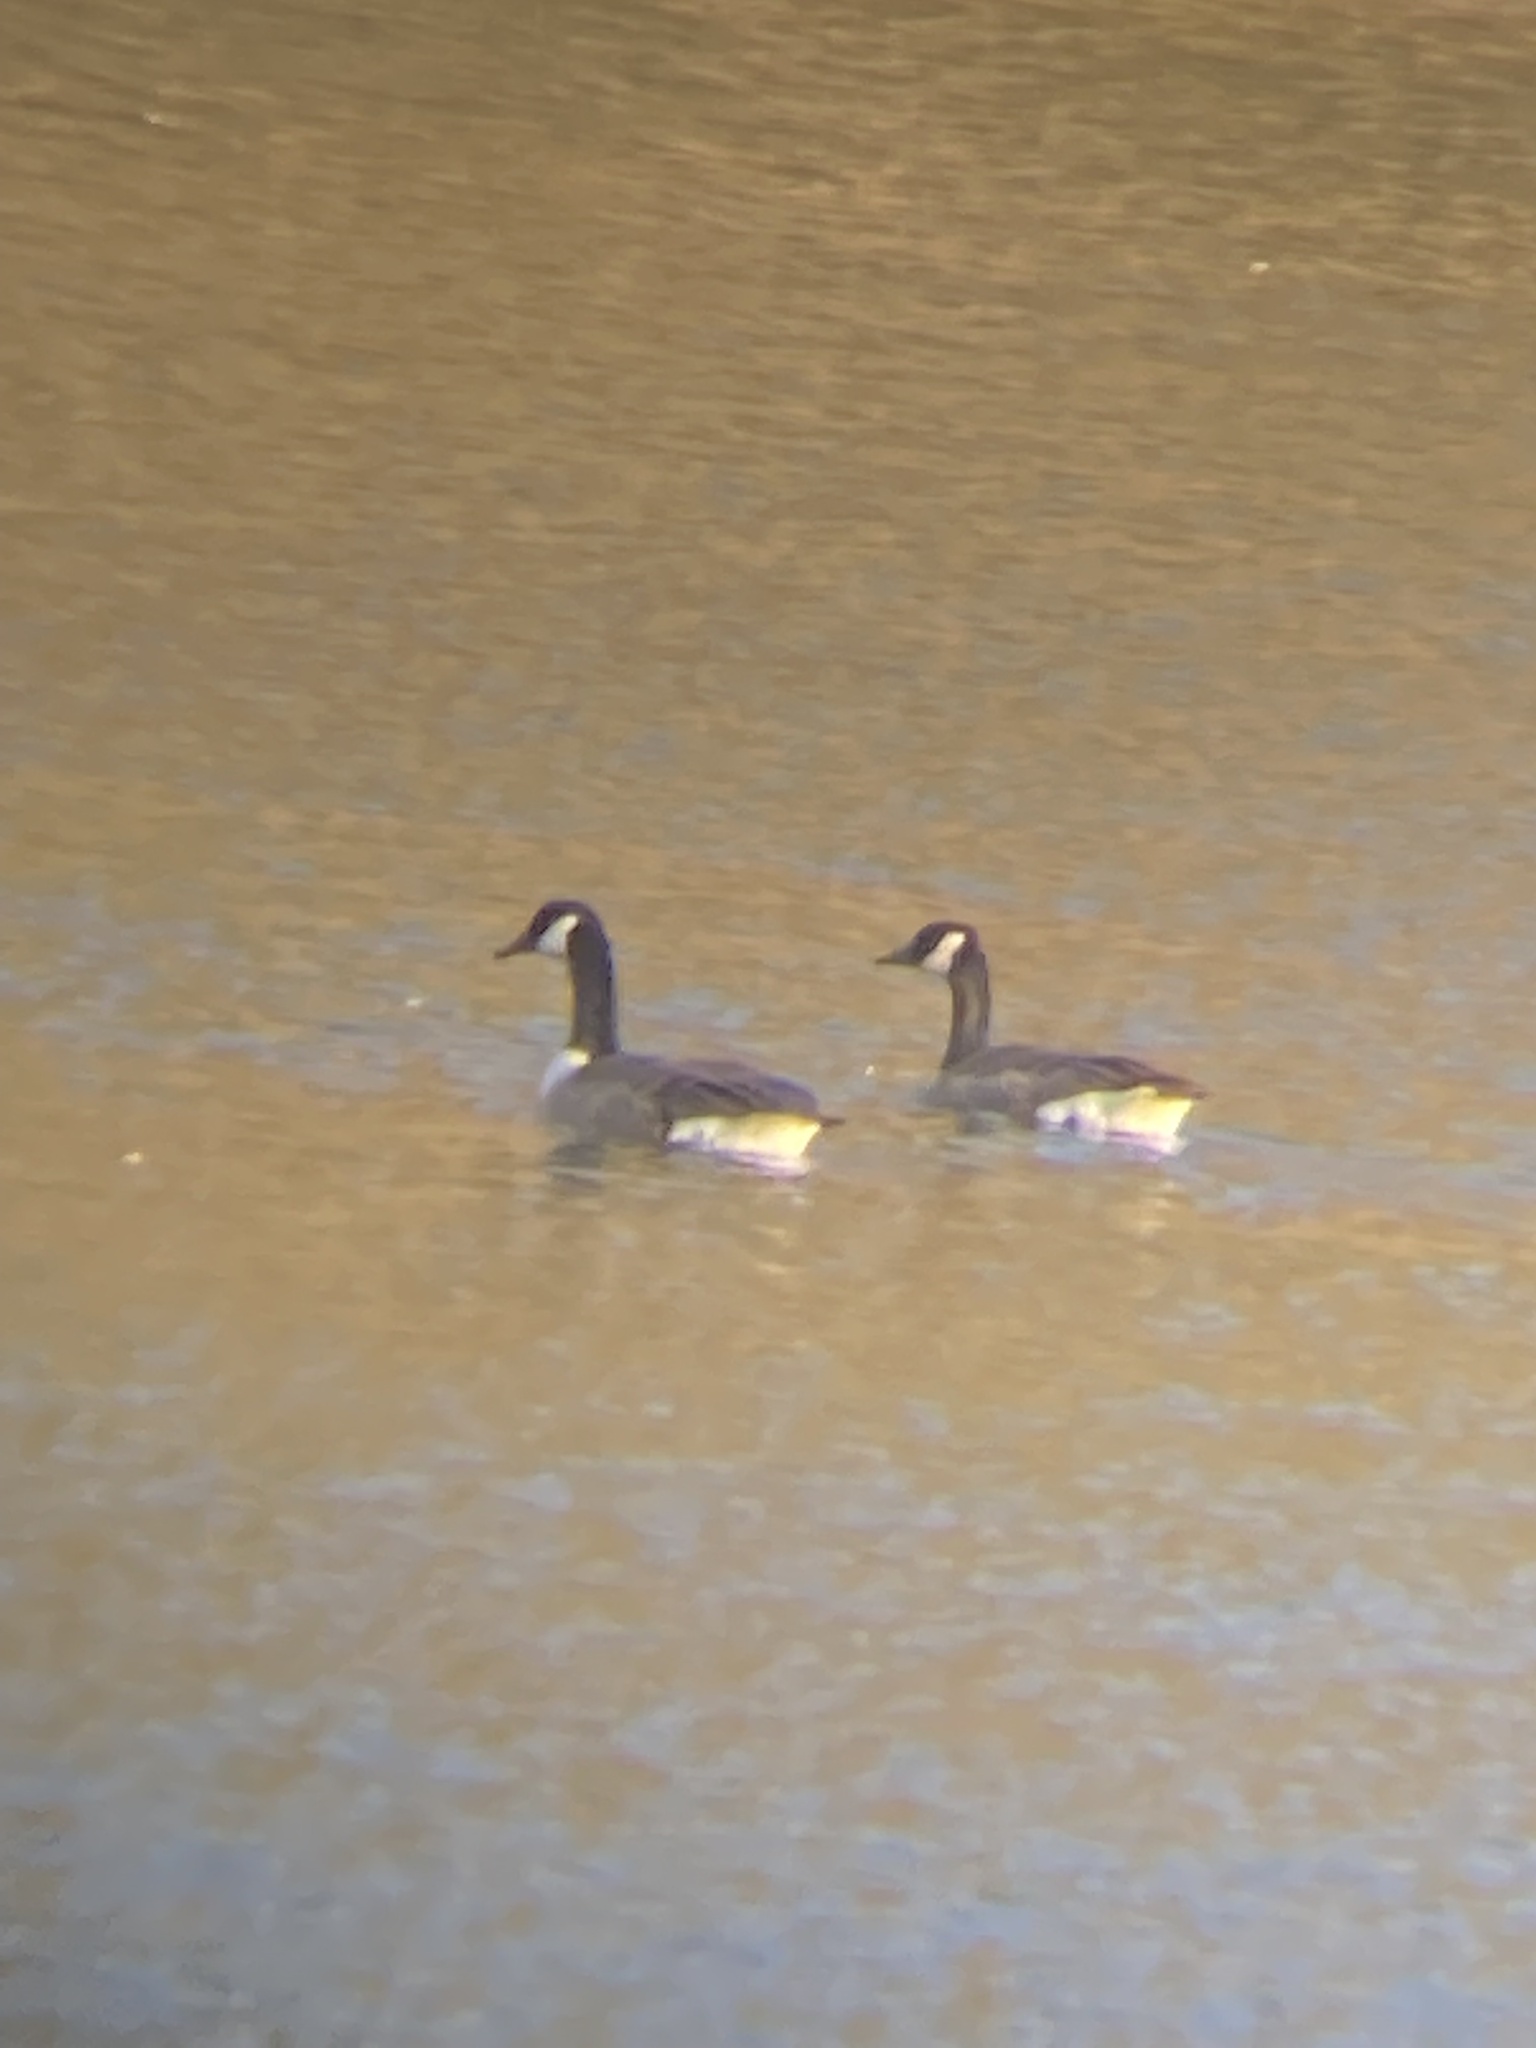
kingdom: Animalia
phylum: Chordata
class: Aves
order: Anseriformes
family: Anatidae
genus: Branta
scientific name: Branta canadensis
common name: Canada goose
